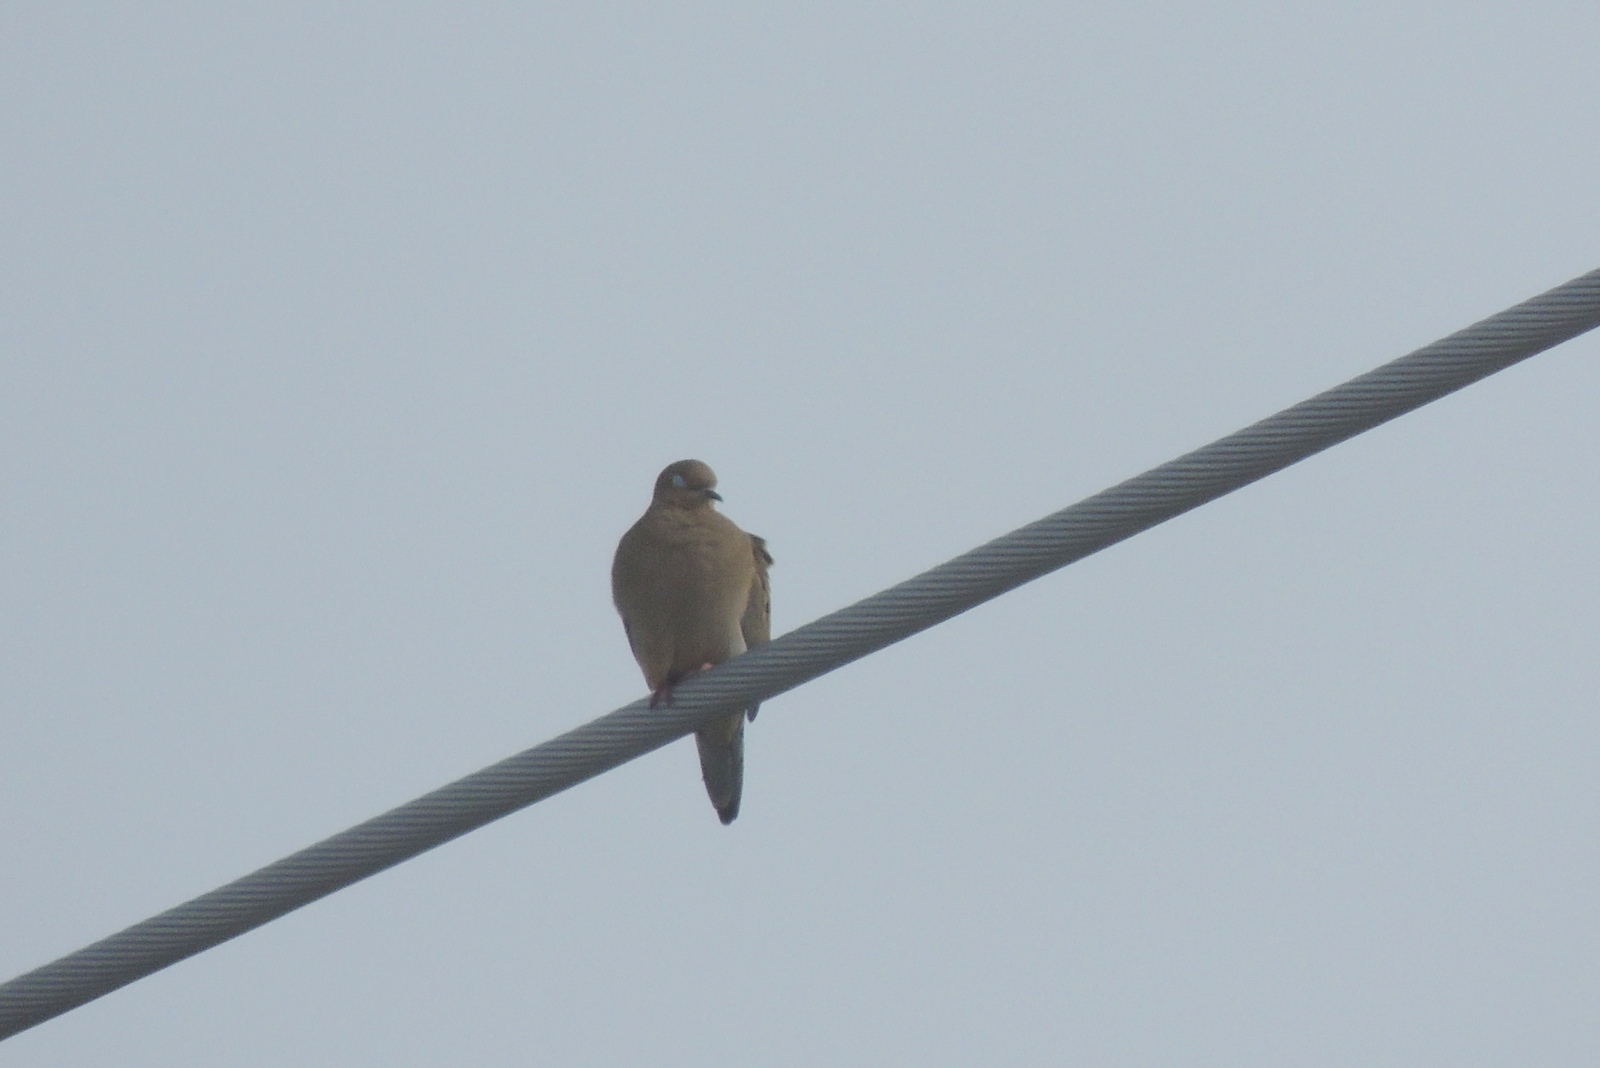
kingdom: Animalia
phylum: Chordata
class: Aves
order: Columbiformes
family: Columbidae
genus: Zenaida
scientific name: Zenaida macroura
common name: Mourning dove
